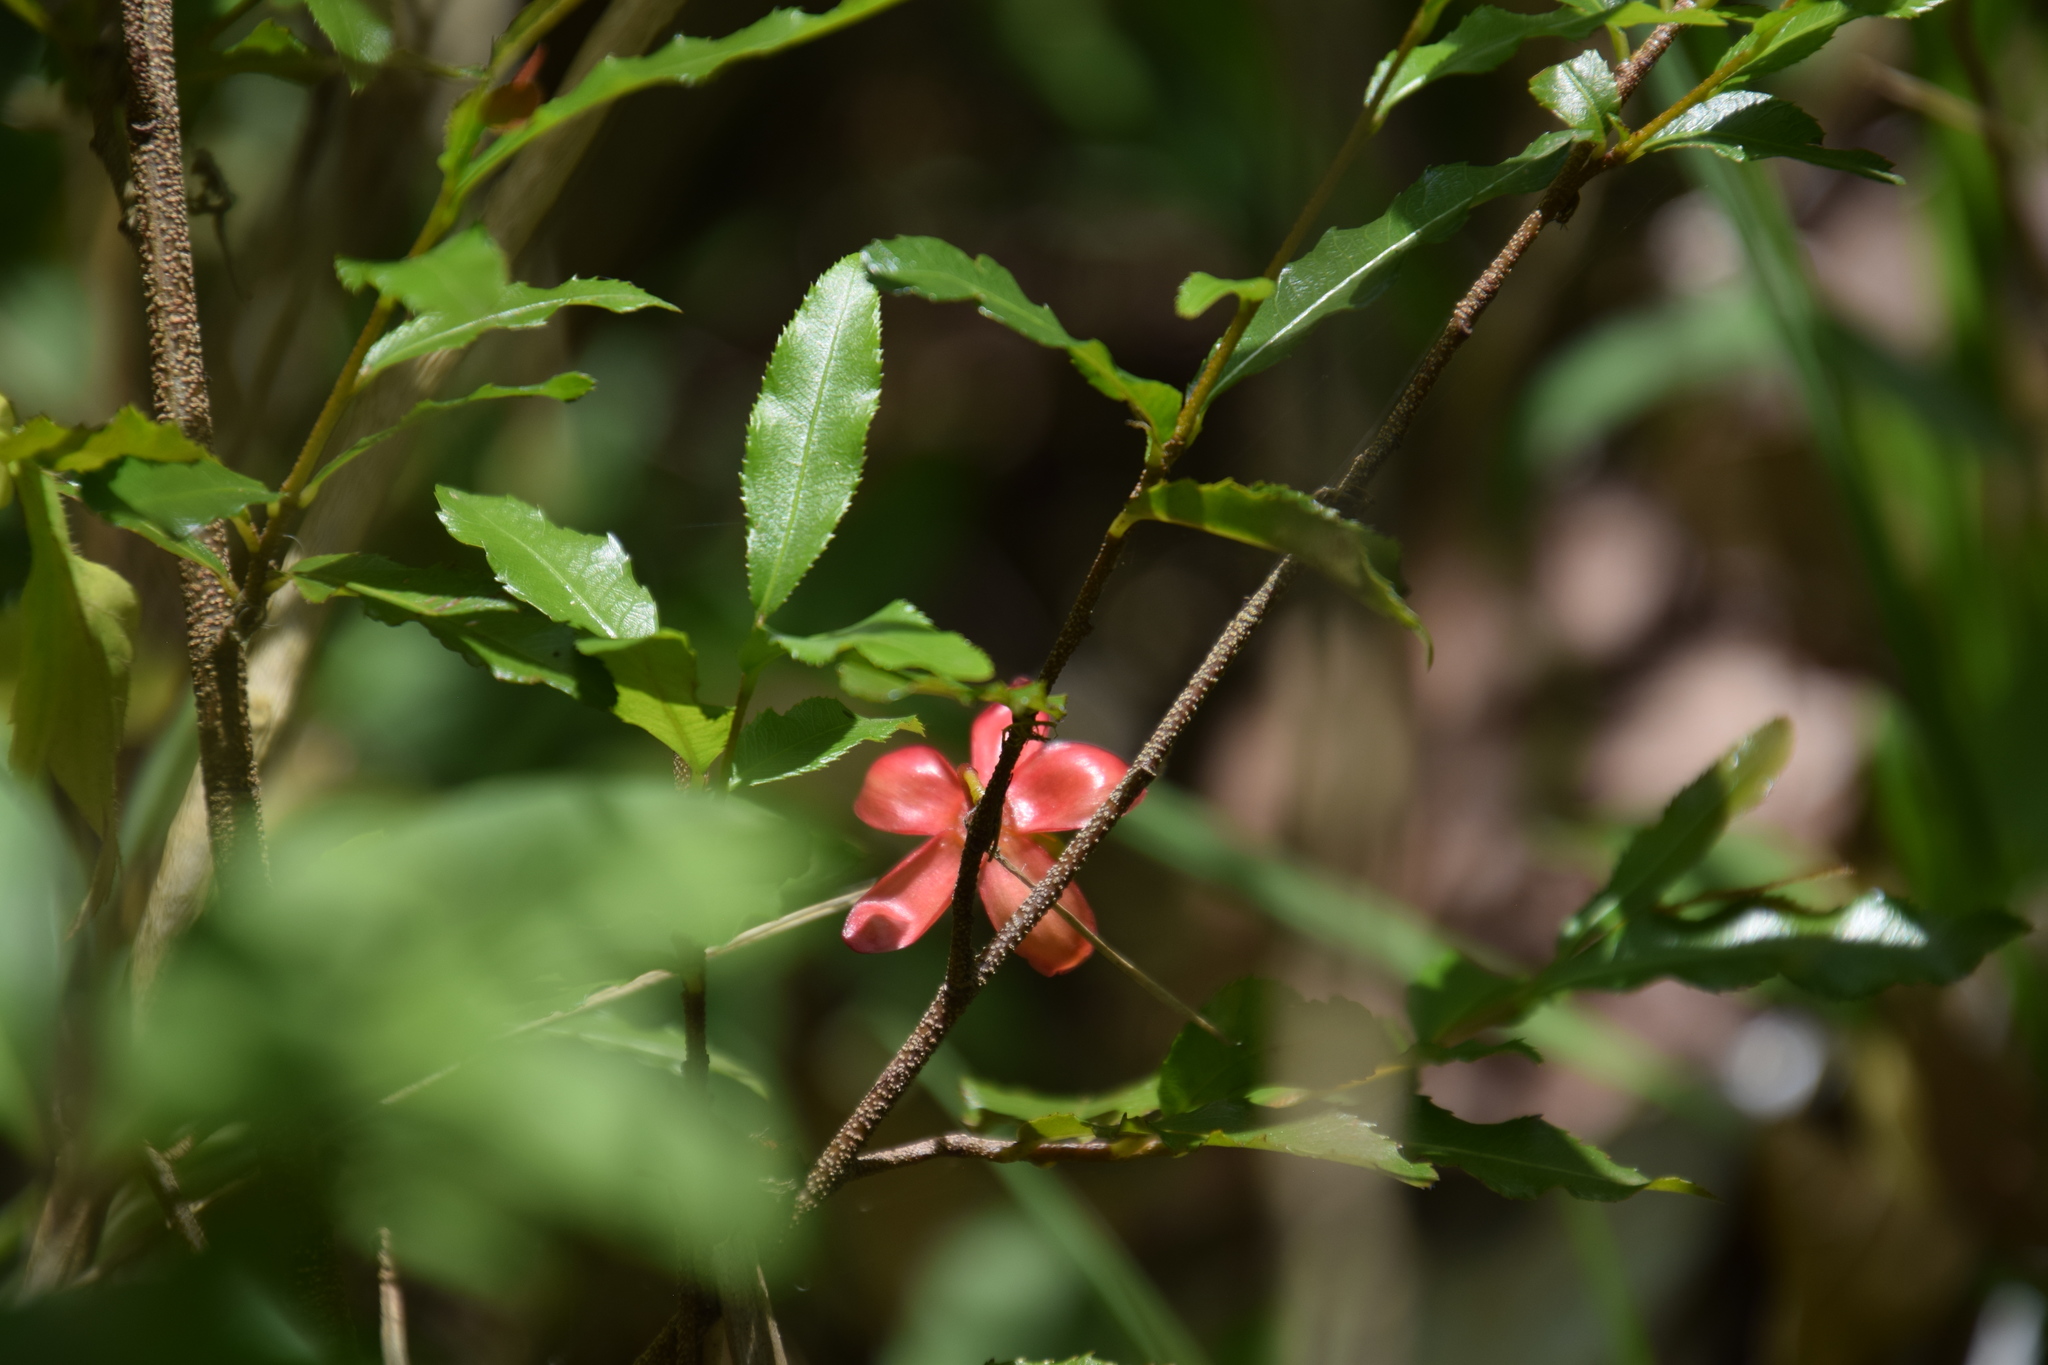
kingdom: Plantae
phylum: Tracheophyta
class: Magnoliopsida
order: Malpighiales
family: Ochnaceae
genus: Ochna
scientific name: Ochna serrulata
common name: Mickey mouse plant
